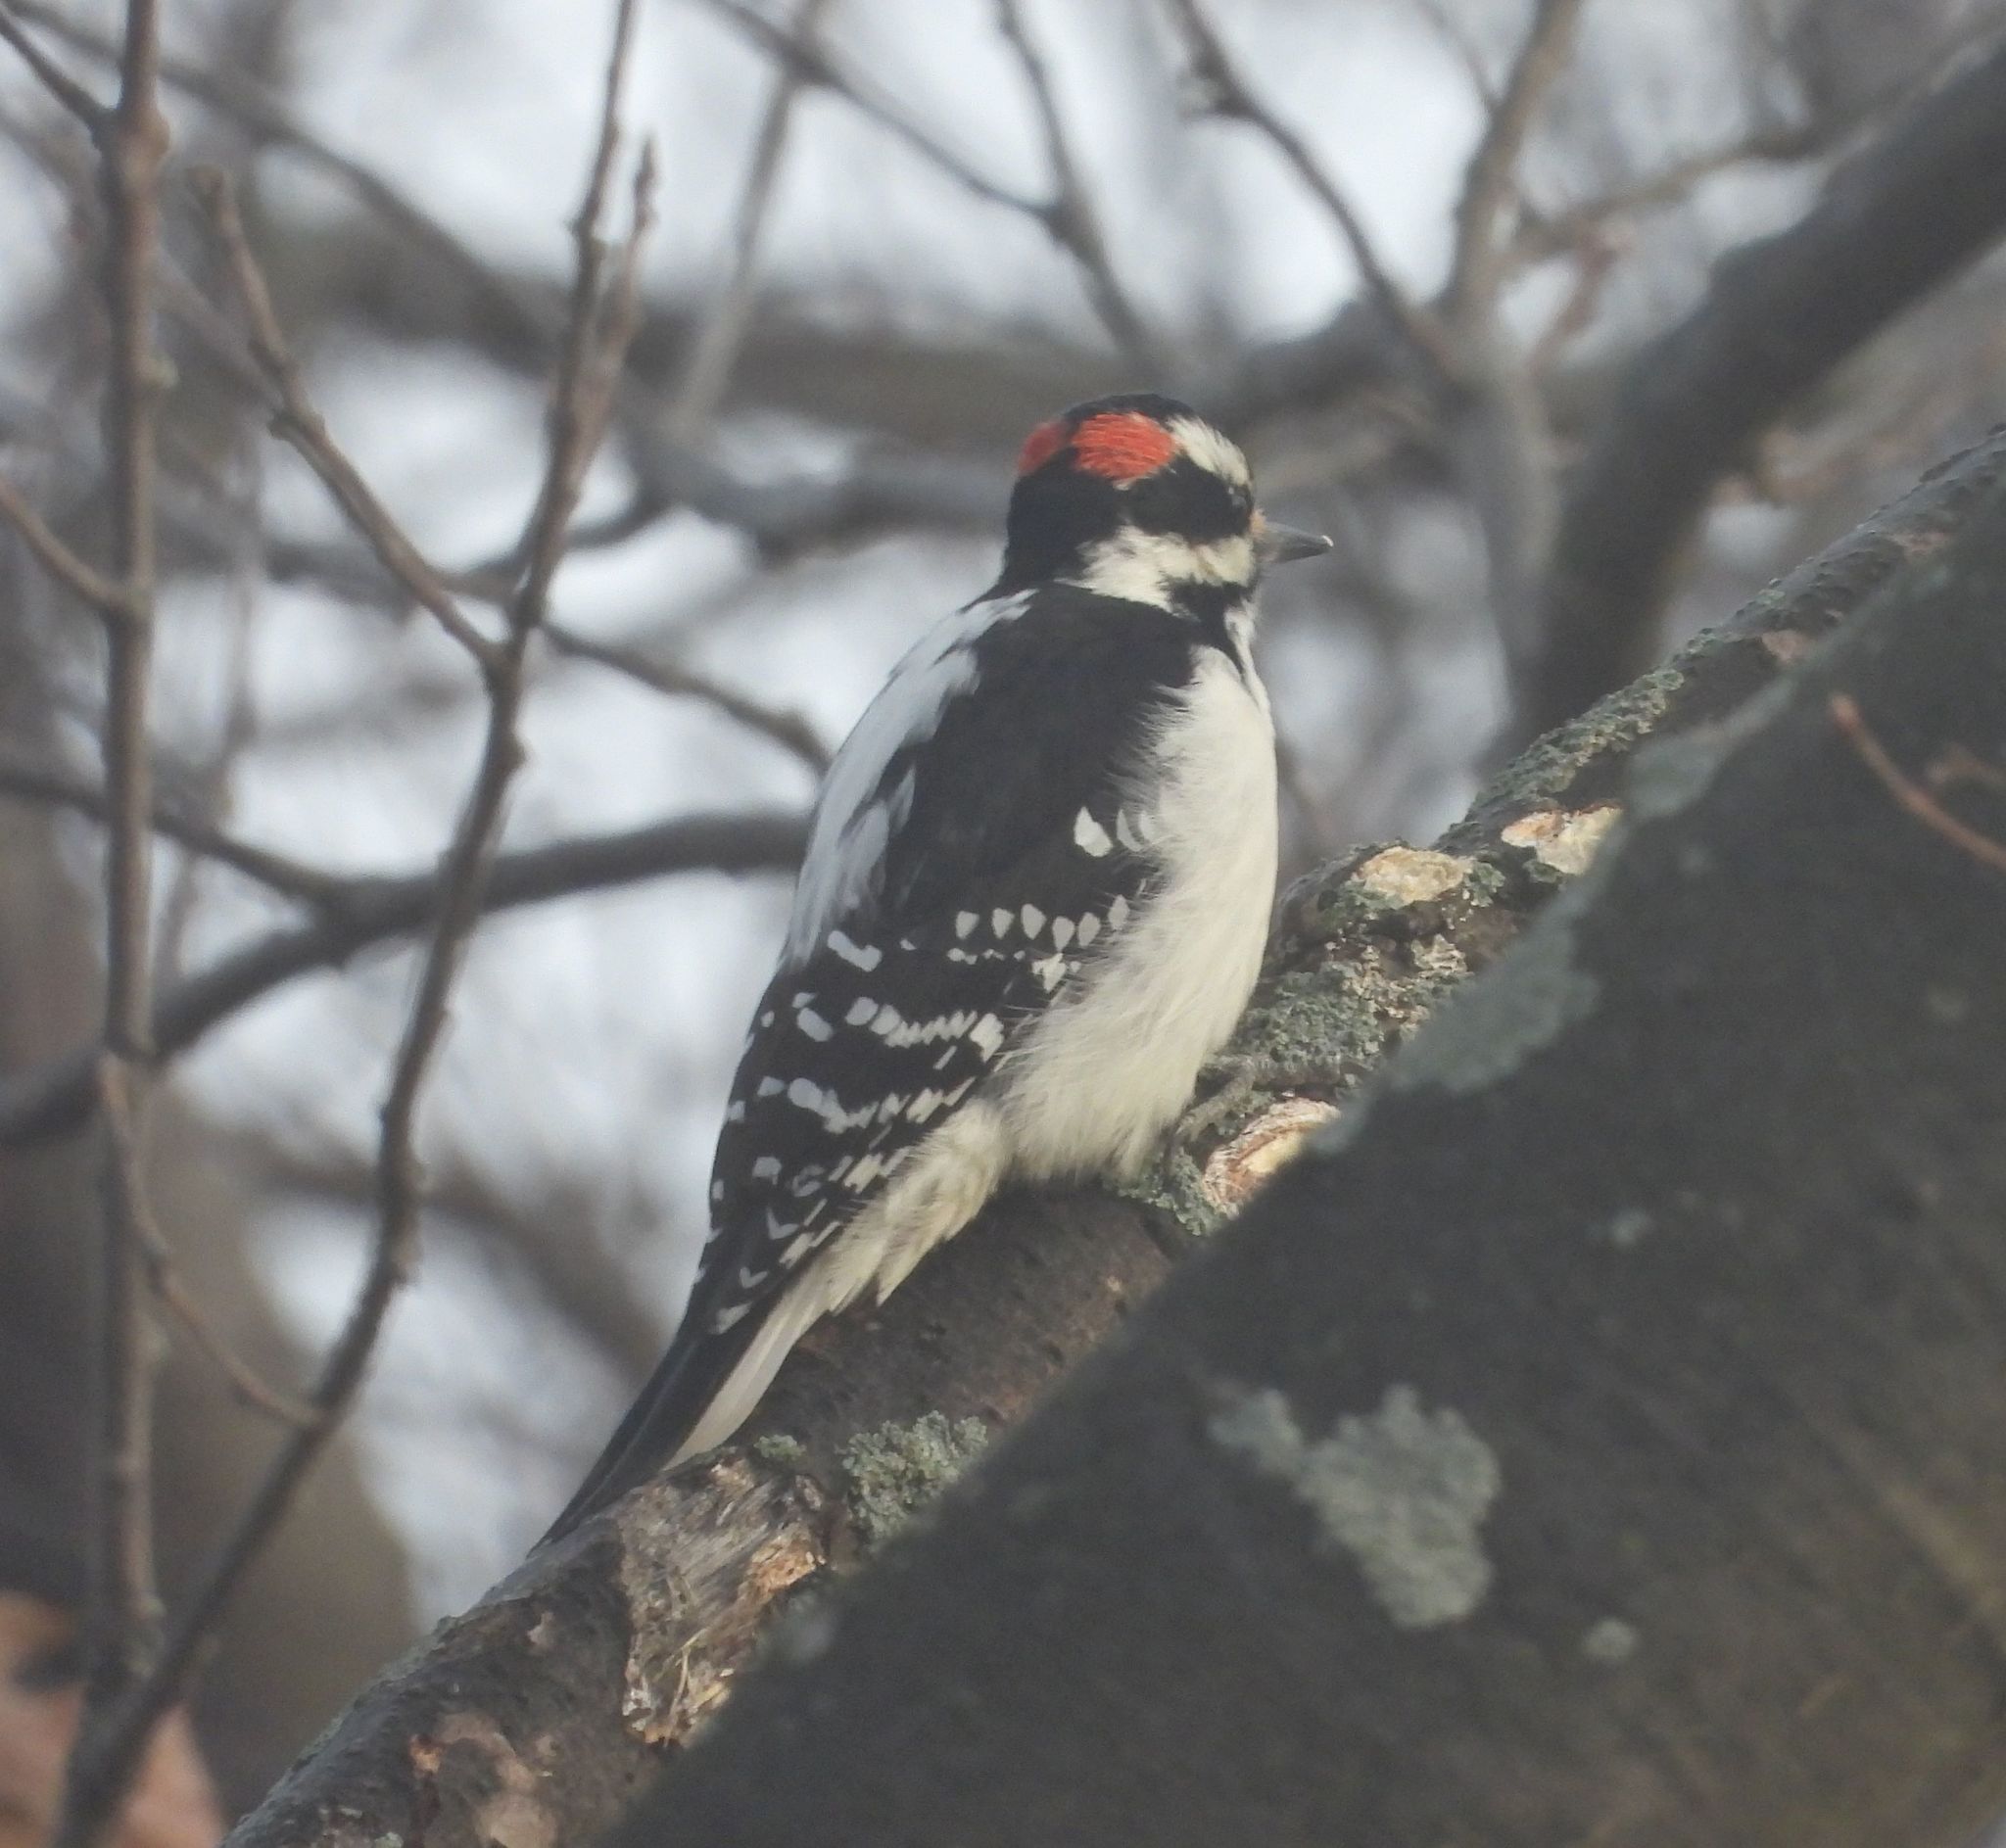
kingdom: Animalia
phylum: Chordata
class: Aves
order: Piciformes
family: Picidae
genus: Leuconotopicus
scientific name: Leuconotopicus villosus
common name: Hairy woodpecker
